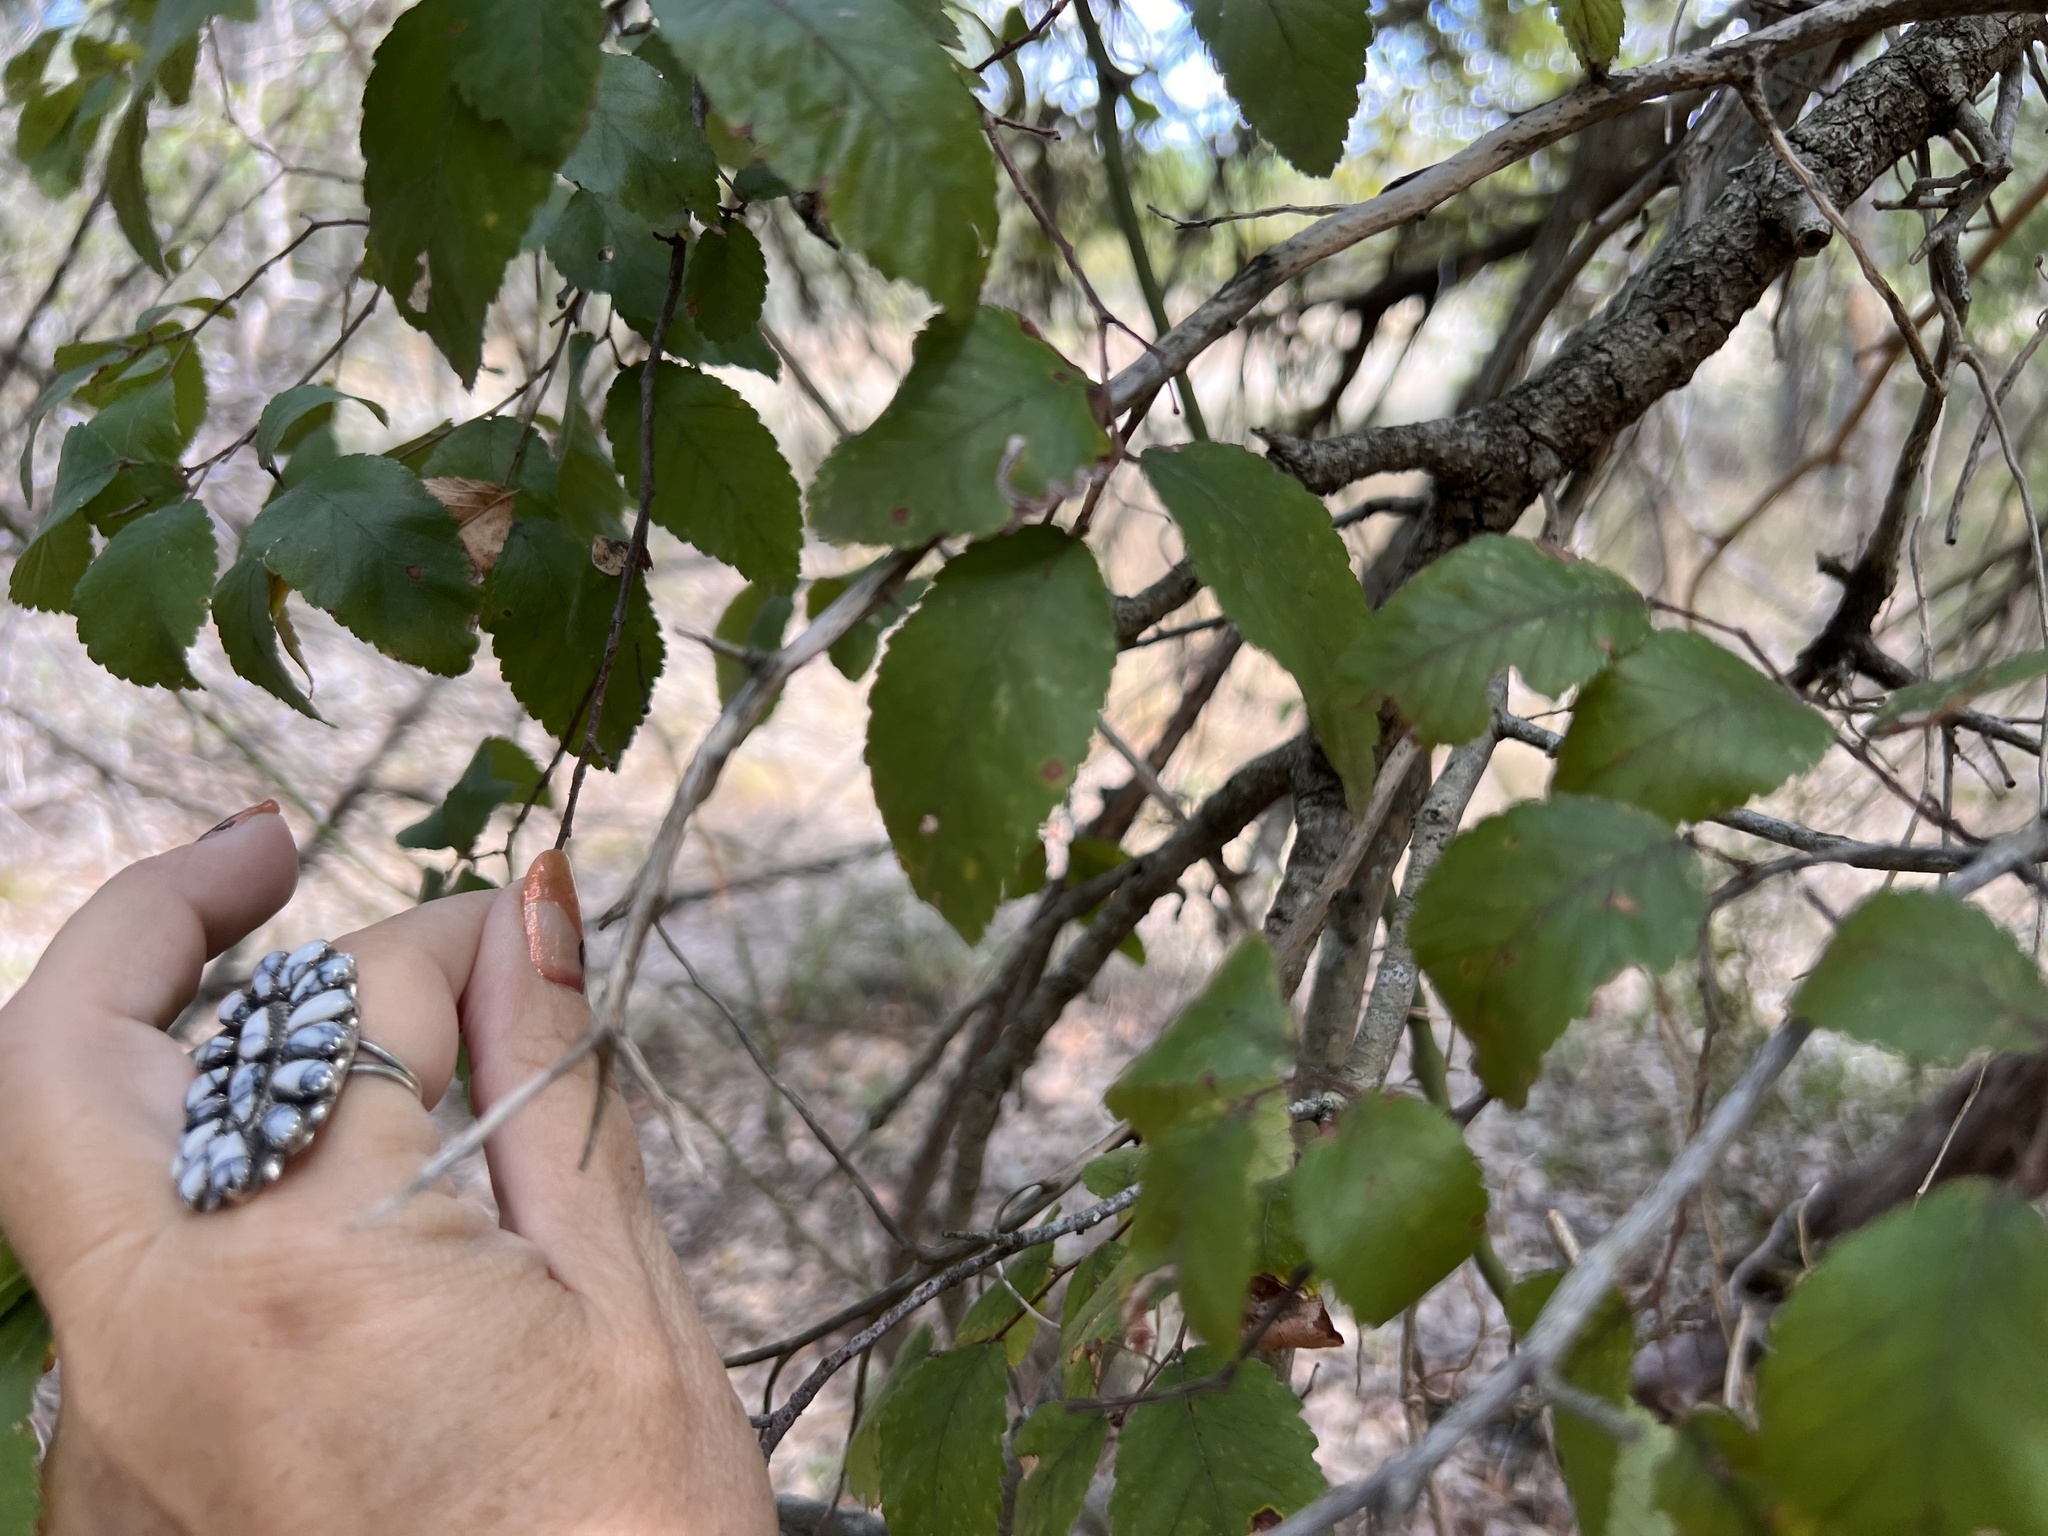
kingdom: Plantae
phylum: Tracheophyta
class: Magnoliopsida
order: Rosales
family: Ulmaceae
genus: Ulmus
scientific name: Ulmus crassifolia
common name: Basket elm
